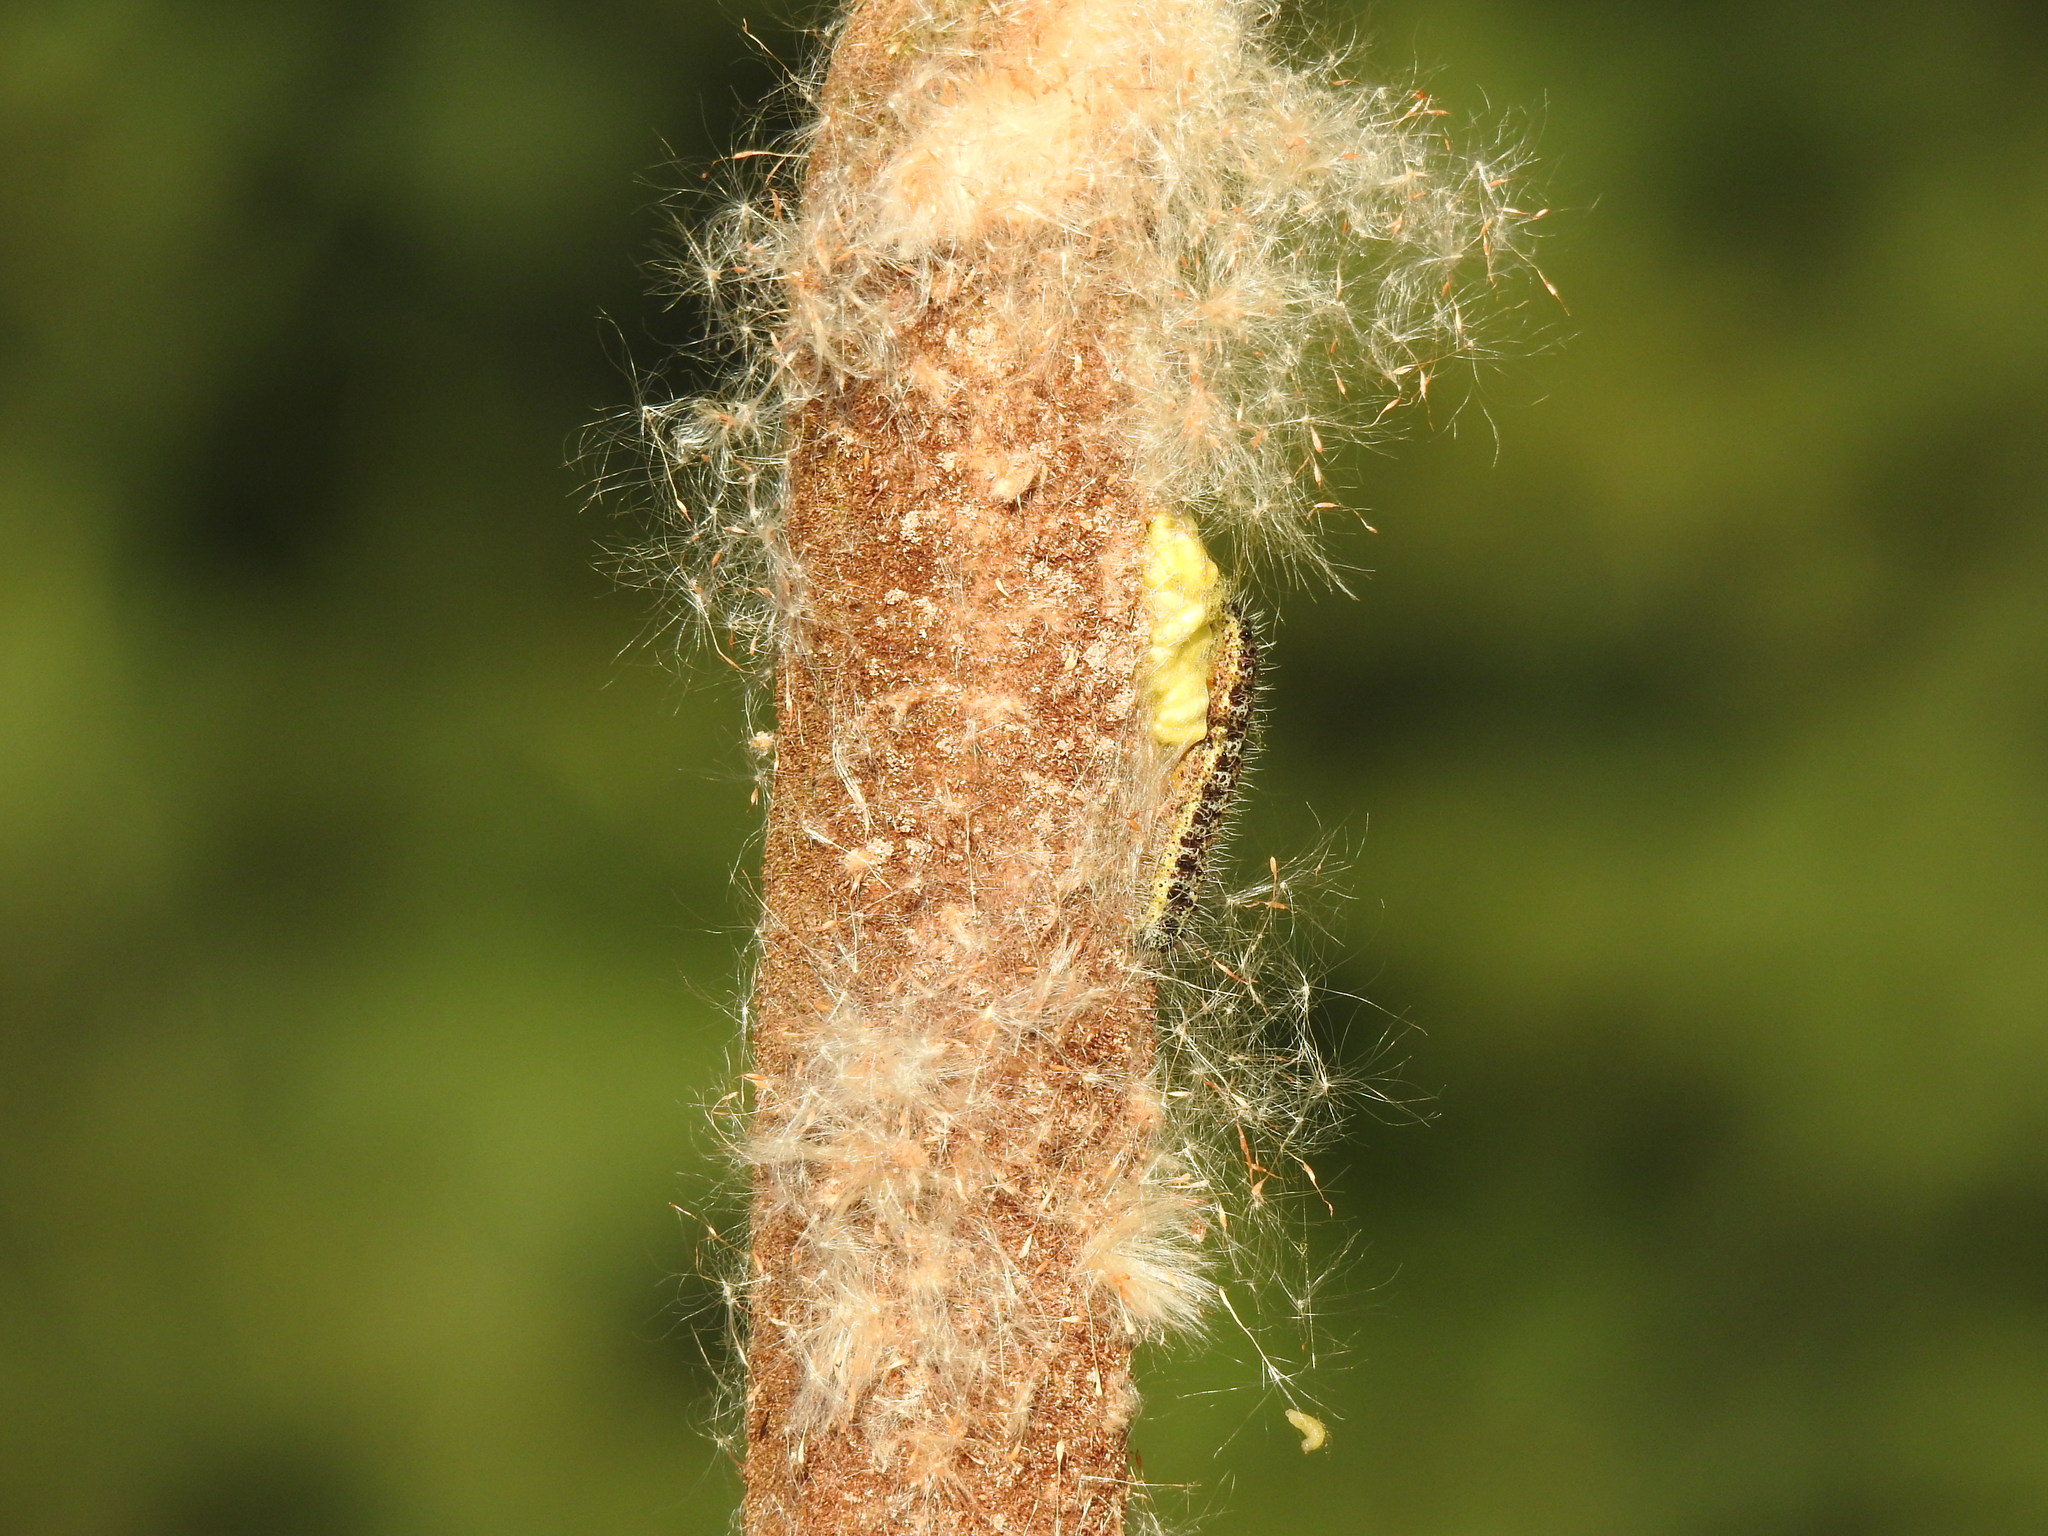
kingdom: Animalia
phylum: Arthropoda
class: Insecta
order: Lepidoptera
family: Pieridae
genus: Pieris
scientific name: Pieris brassicae
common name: Large white
